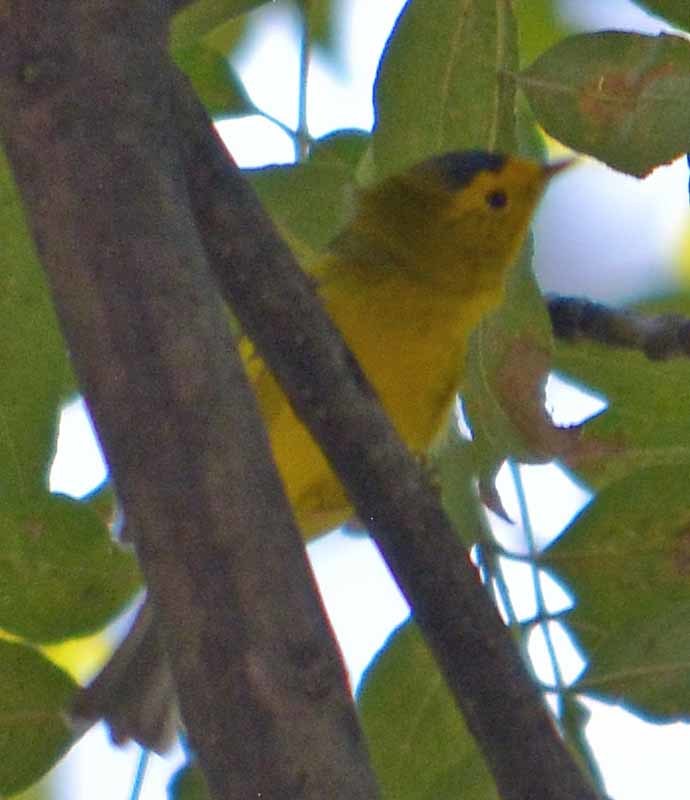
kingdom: Animalia
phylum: Chordata
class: Aves
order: Passeriformes
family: Parulidae
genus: Cardellina
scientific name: Cardellina pusilla
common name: Wilson's warbler
